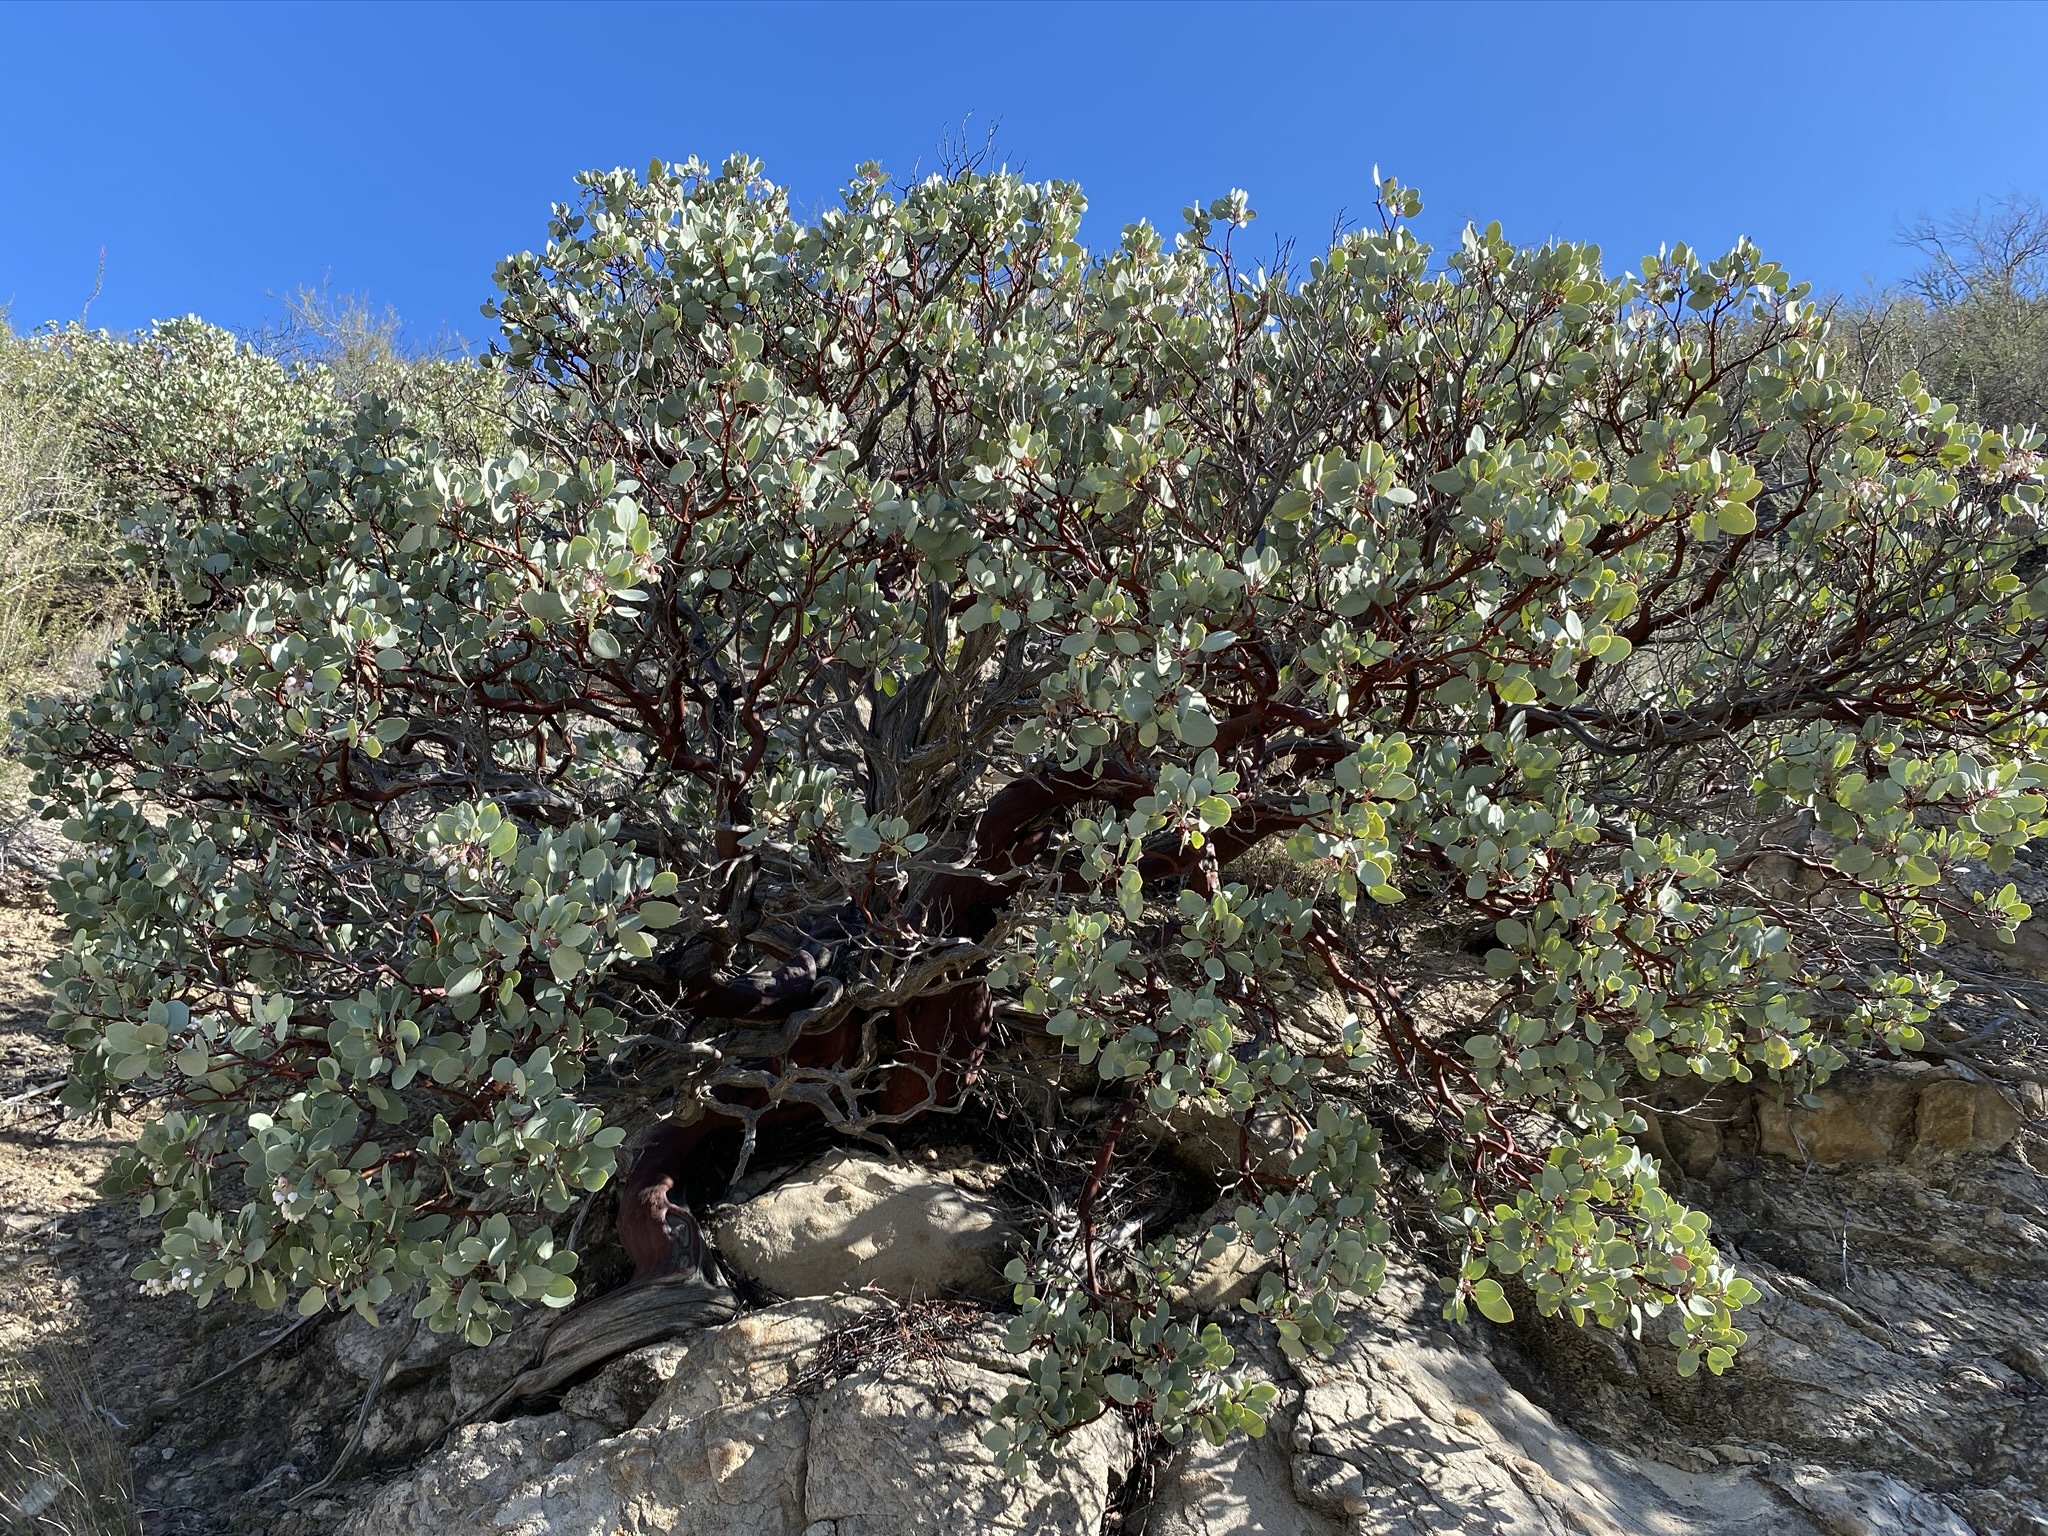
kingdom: Plantae
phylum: Tracheophyta
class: Magnoliopsida
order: Ericales
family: Ericaceae
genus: Arctostaphylos
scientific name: Arctostaphylos glauca
